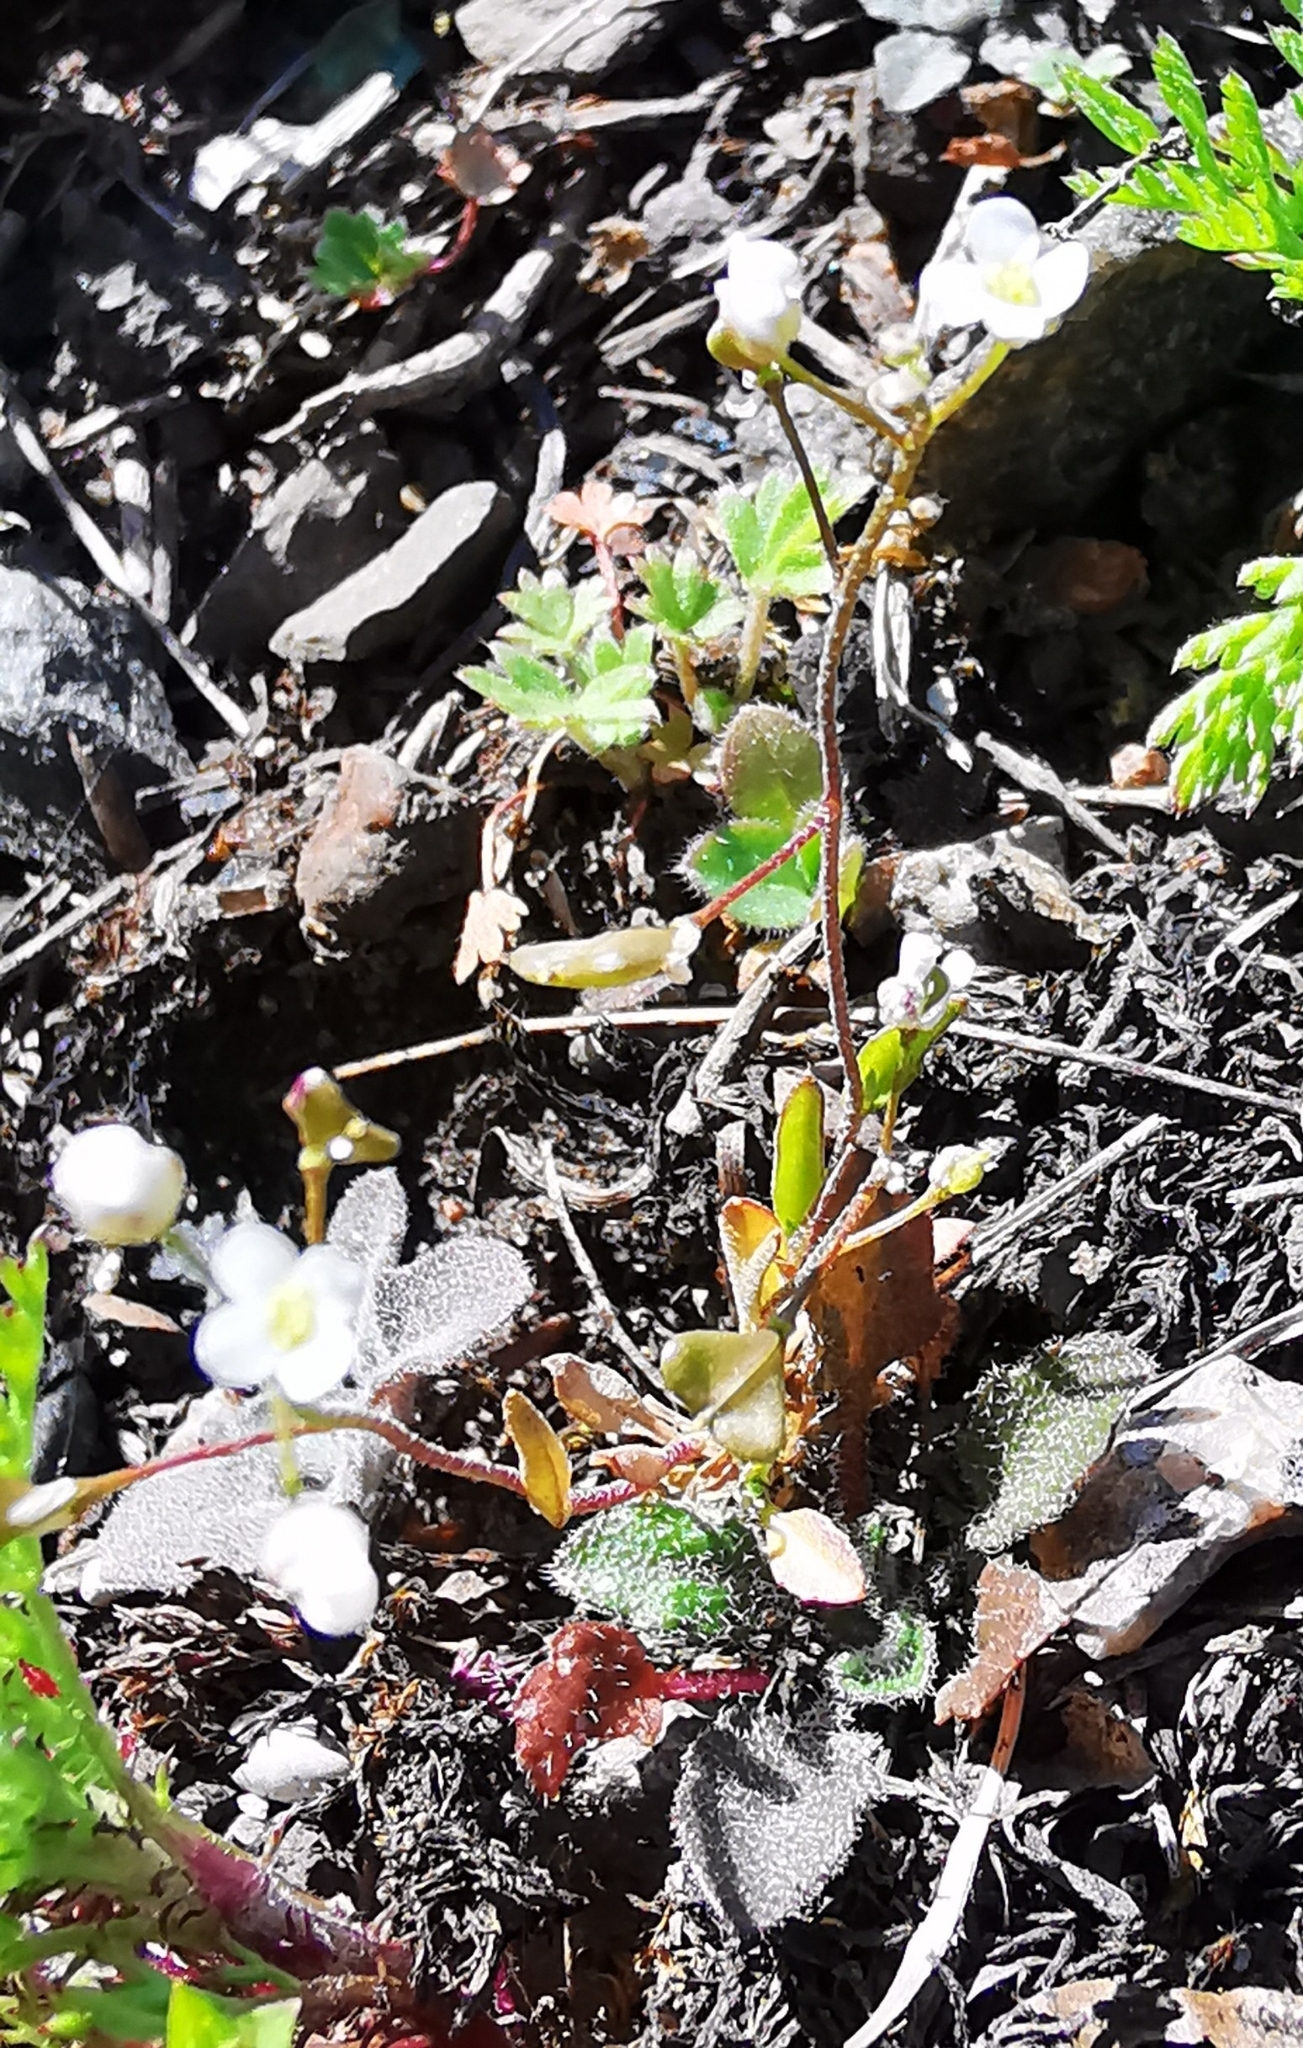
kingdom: Plantae
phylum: Tracheophyta
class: Magnoliopsida
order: Brassicales
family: Brassicaceae
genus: Draba
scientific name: Draba verna
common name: Spring draba
